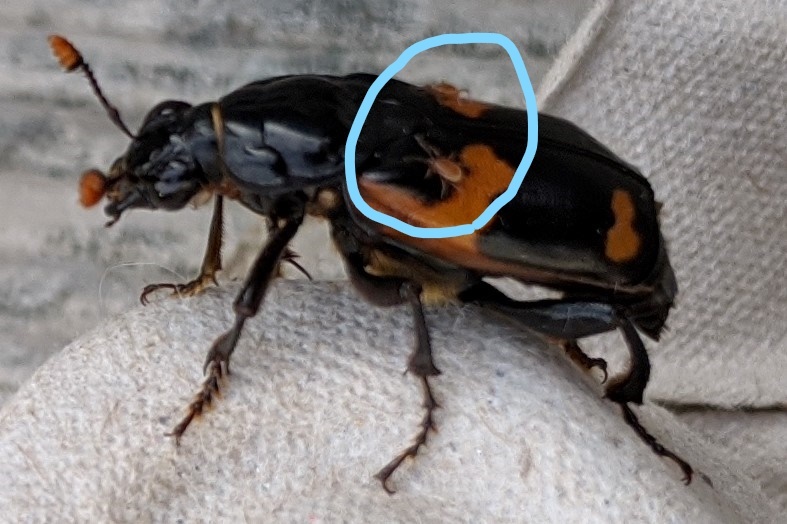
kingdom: Animalia
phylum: Arthropoda
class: Arachnida
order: Mesostigmata
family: Parasitidae
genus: Poecilochirus
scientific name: Poecilochirus
